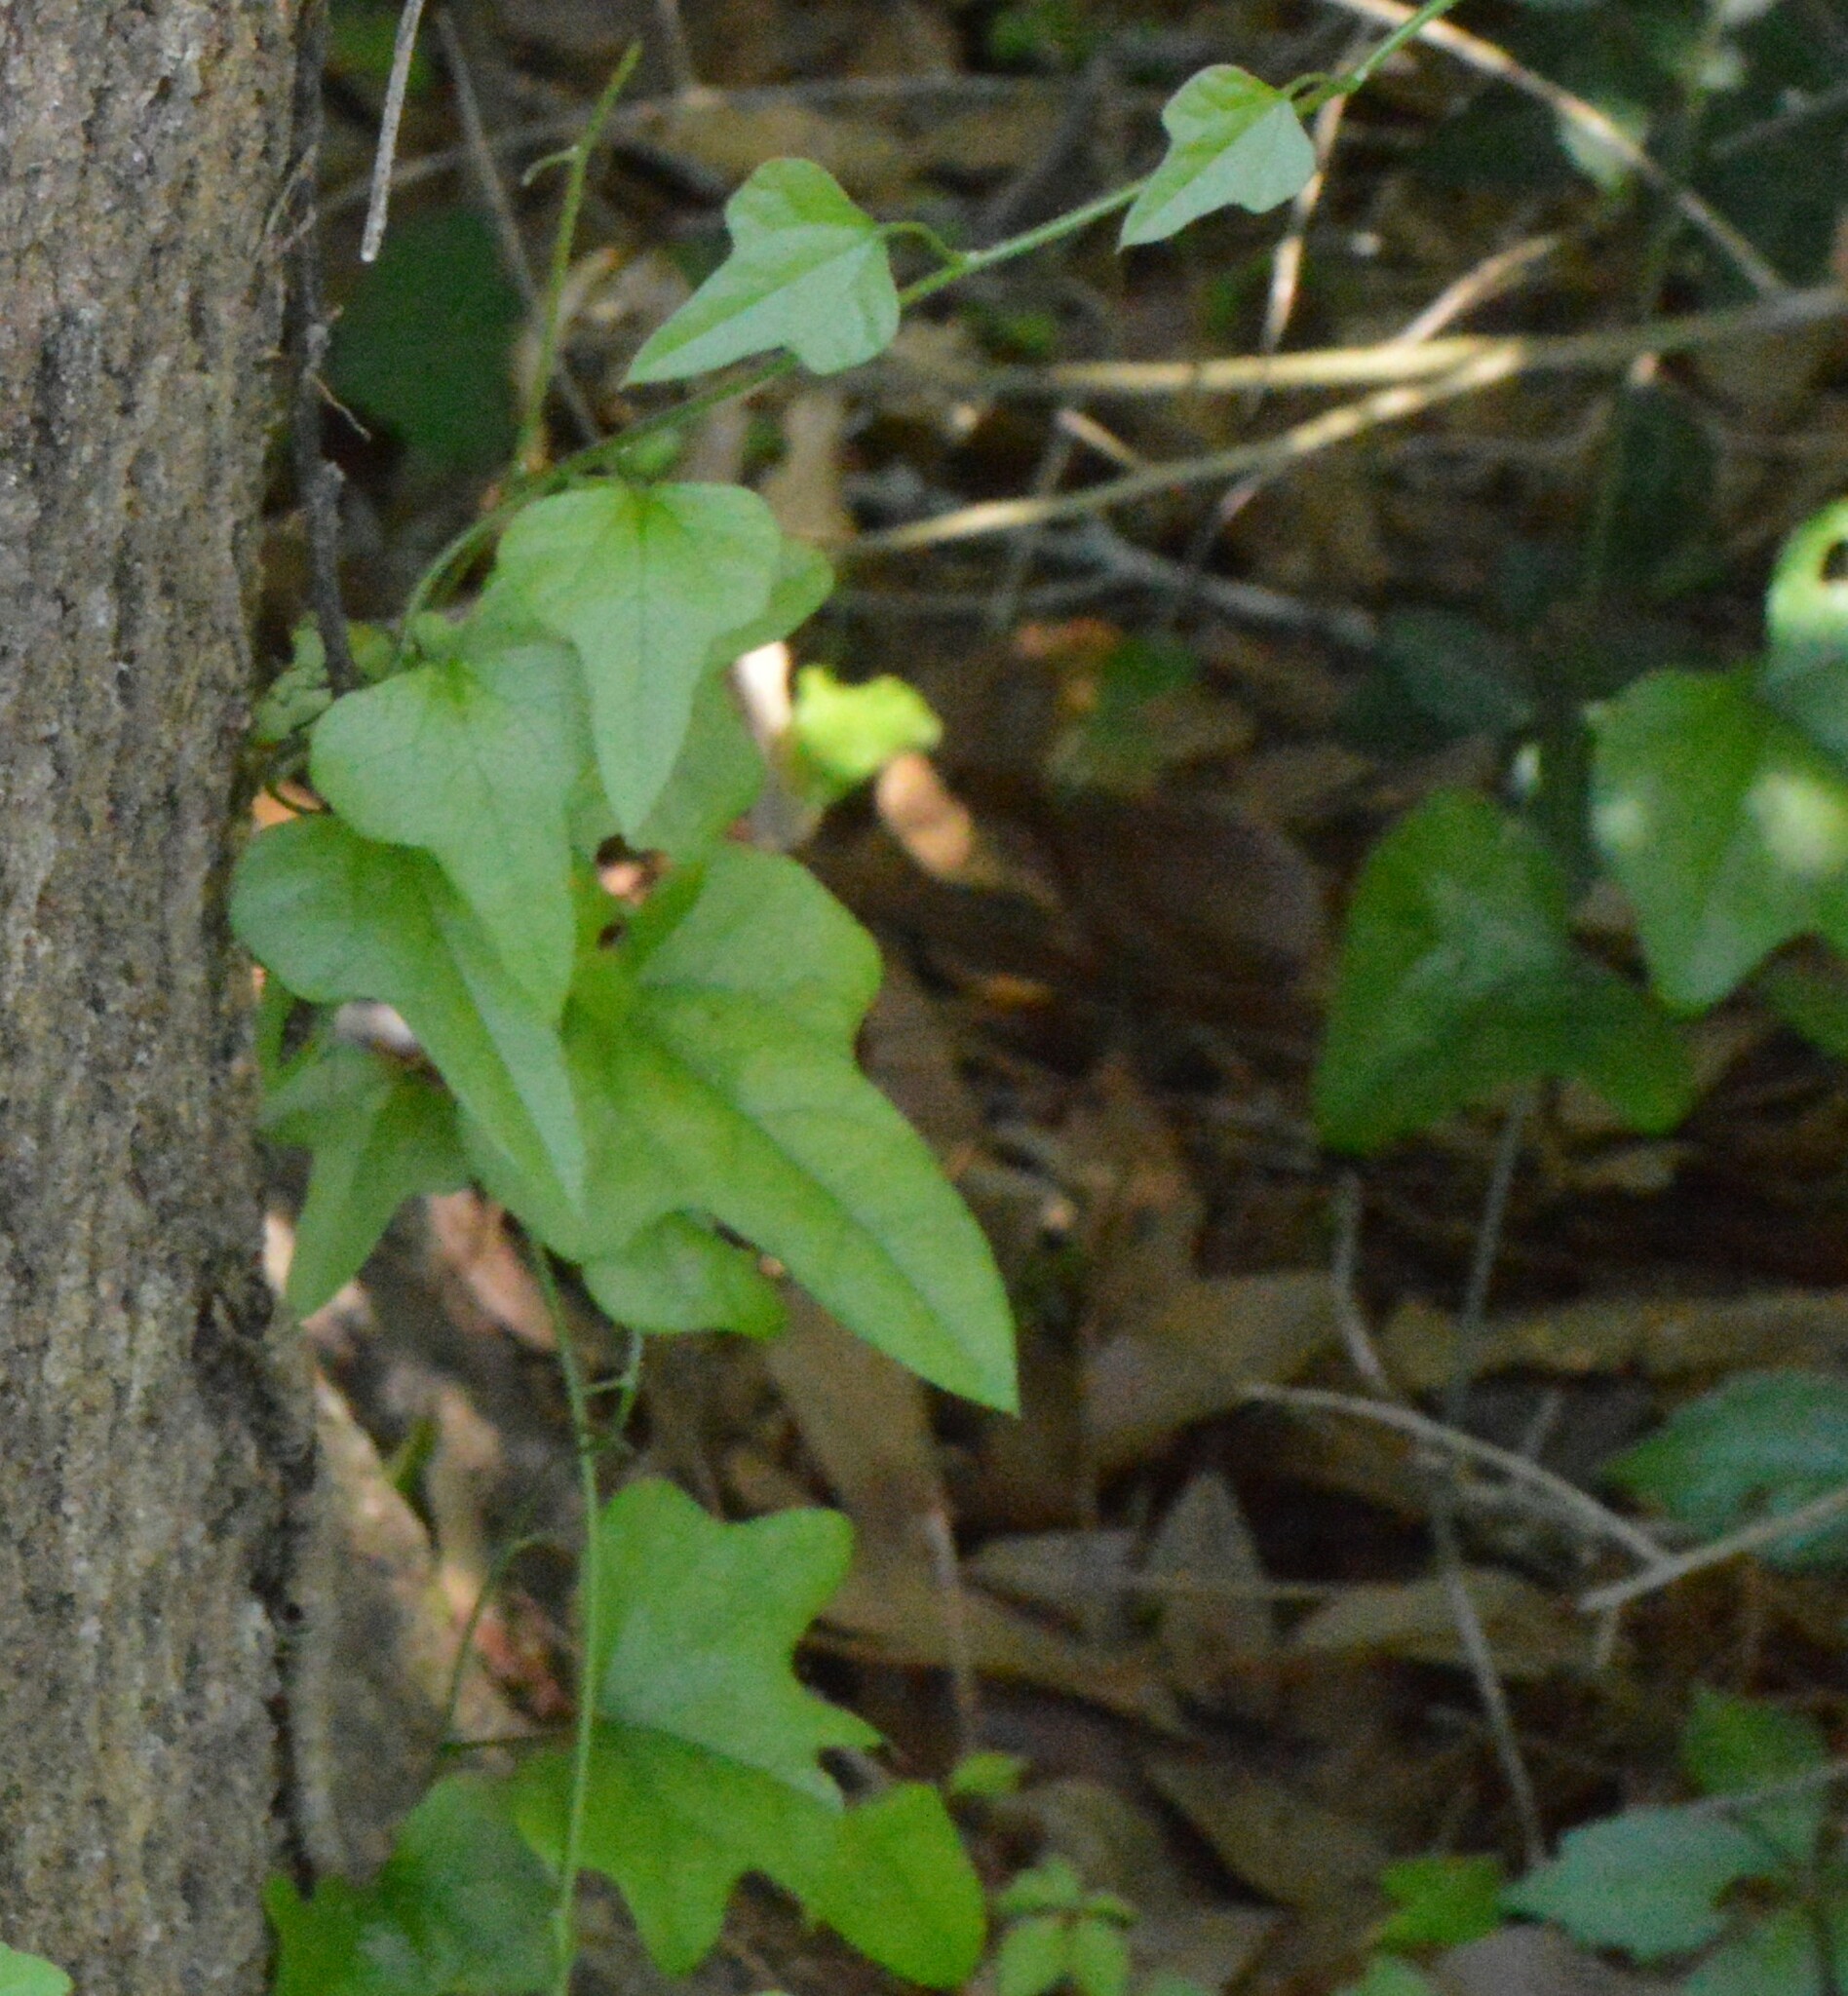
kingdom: Plantae
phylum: Tracheophyta
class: Magnoliopsida
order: Ranunculales
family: Menispermaceae
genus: Cocculus
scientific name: Cocculus carolinus
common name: Carolina moonseed
